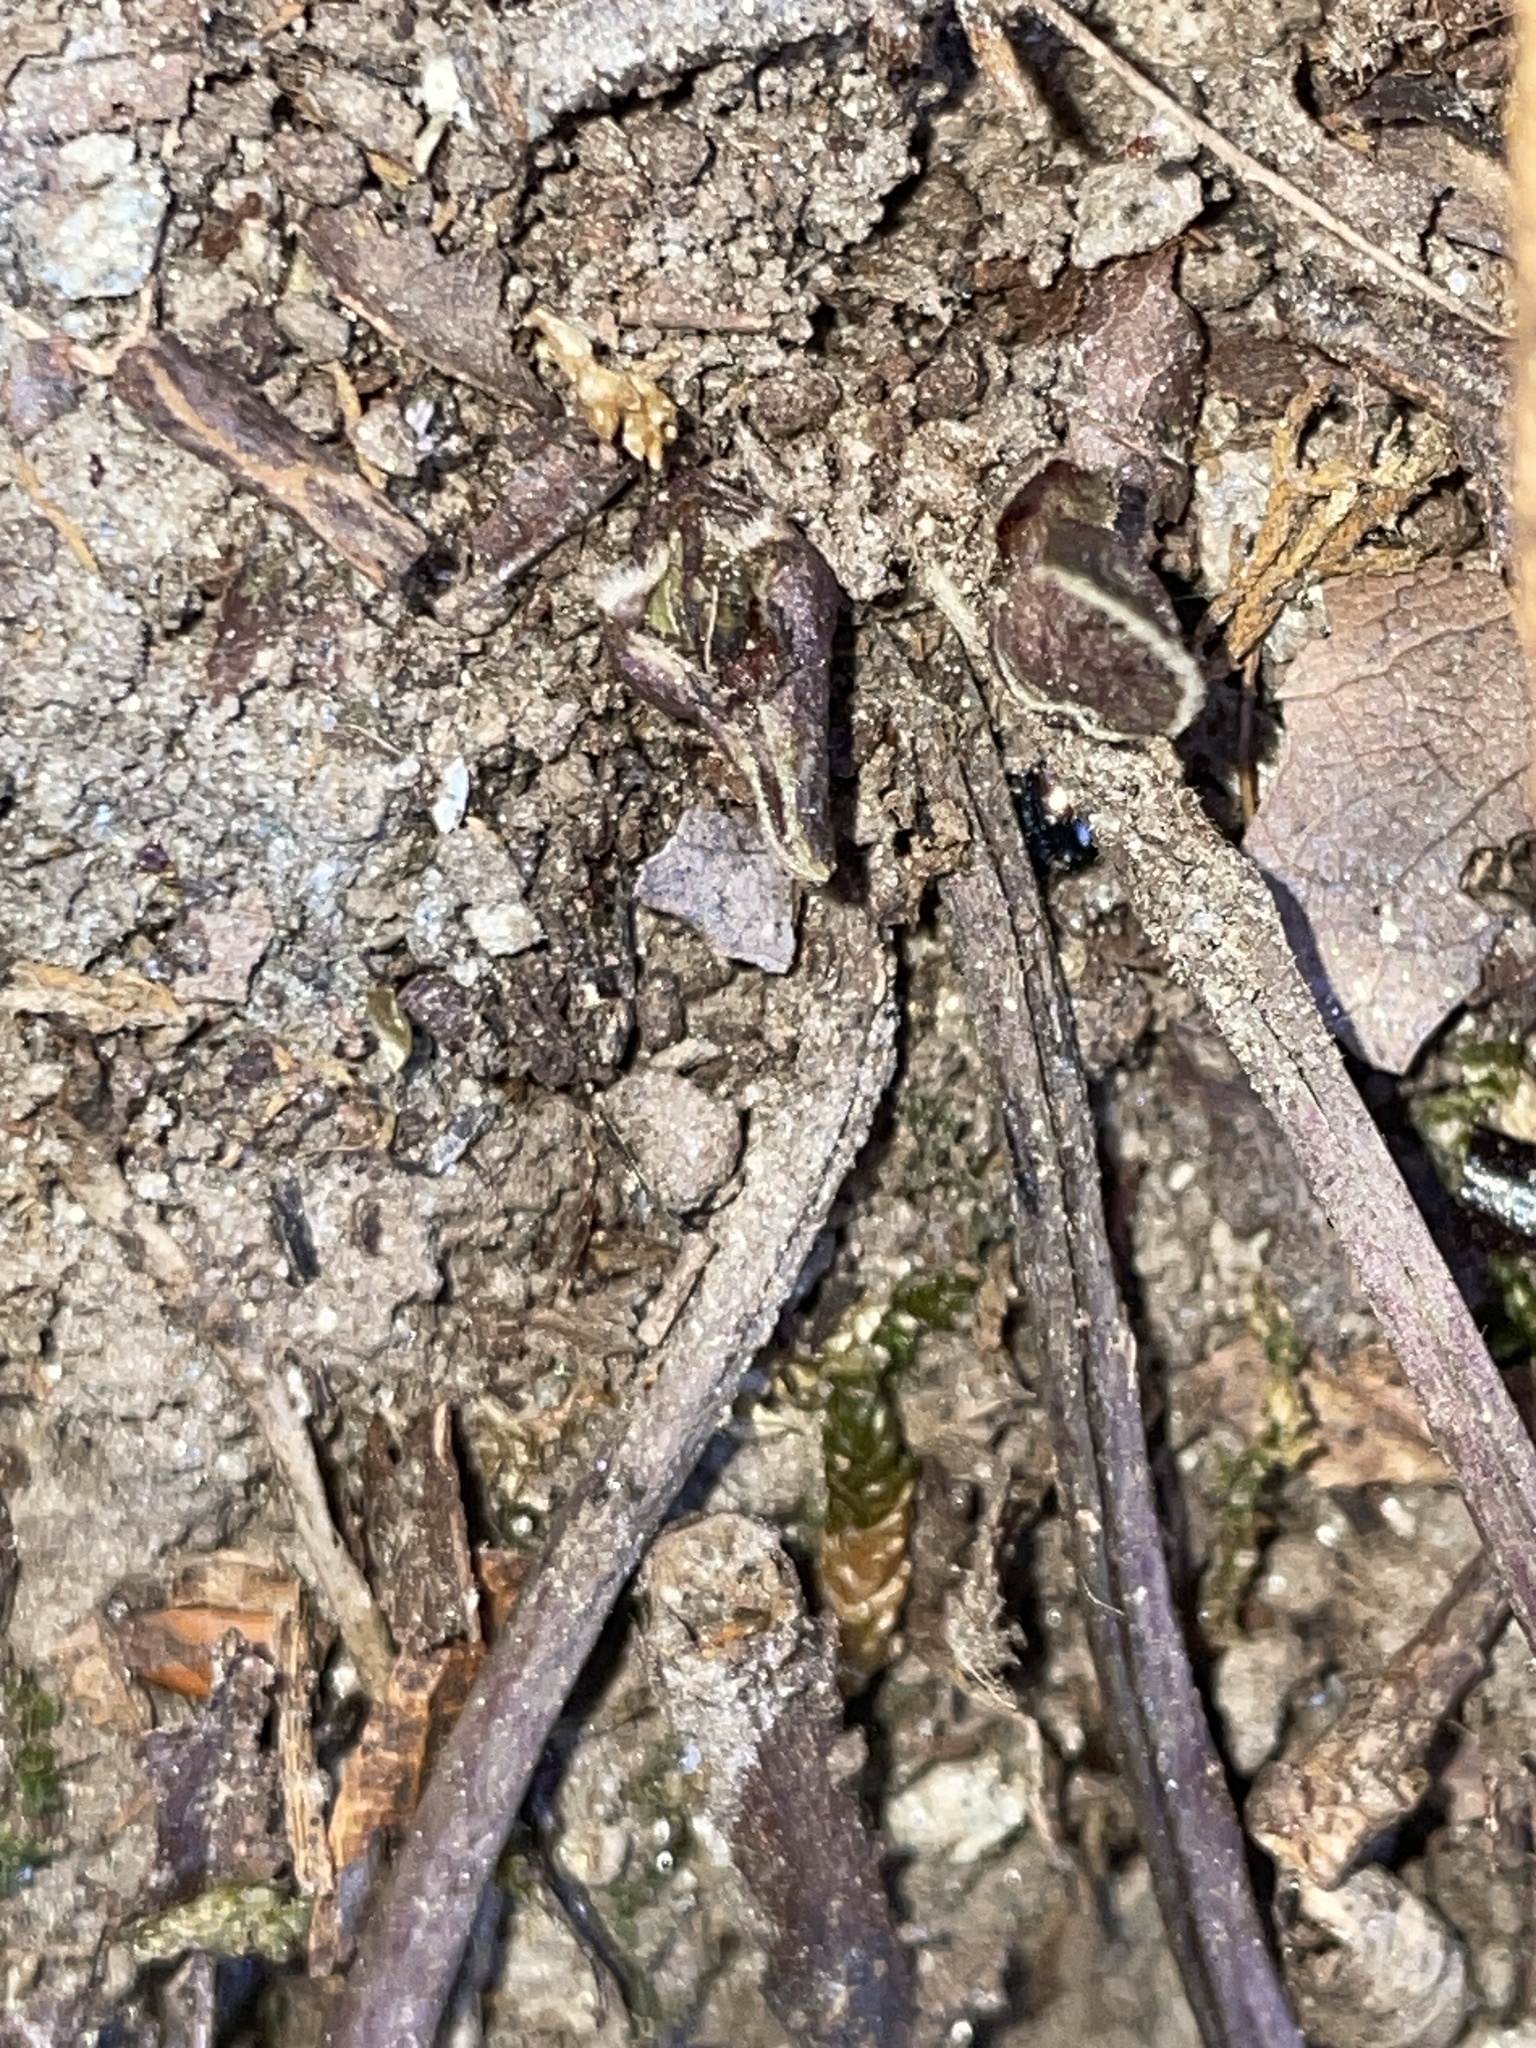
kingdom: Plantae
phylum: Tracheophyta
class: Magnoliopsida
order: Piperales
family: Aristolochiaceae
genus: Hexastylis
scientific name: Hexastylis arifolia
